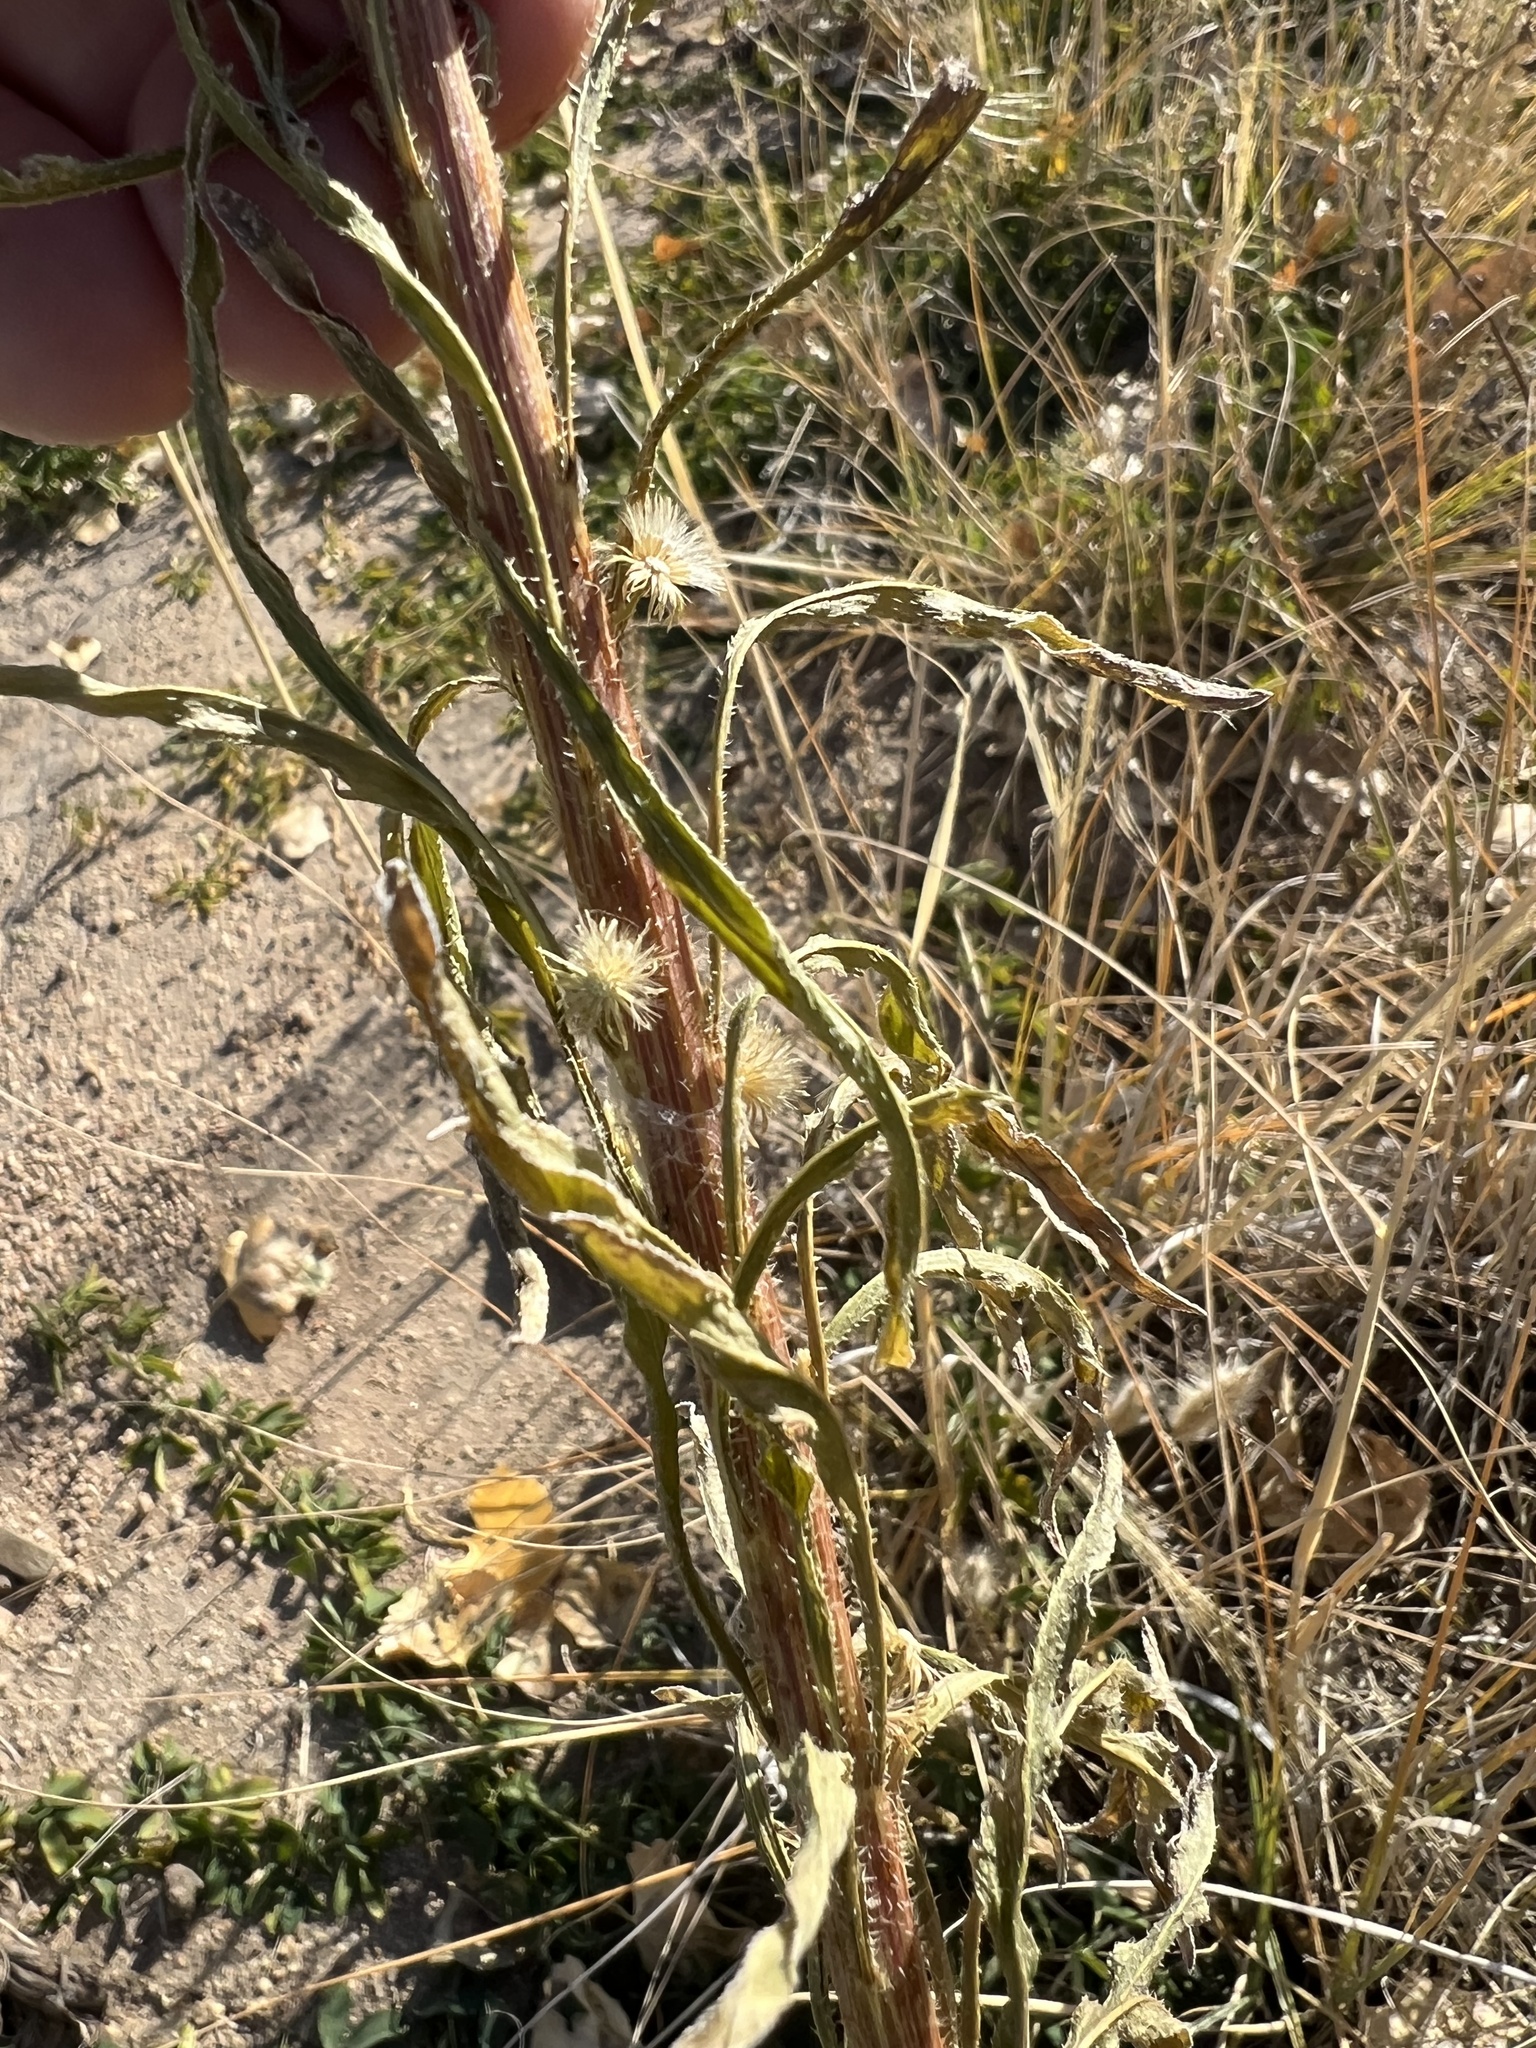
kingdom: Plantae
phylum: Tracheophyta
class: Magnoliopsida
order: Asterales
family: Asteraceae
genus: Erigeron
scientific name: Erigeron canadensis
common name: Canadian fleabane
